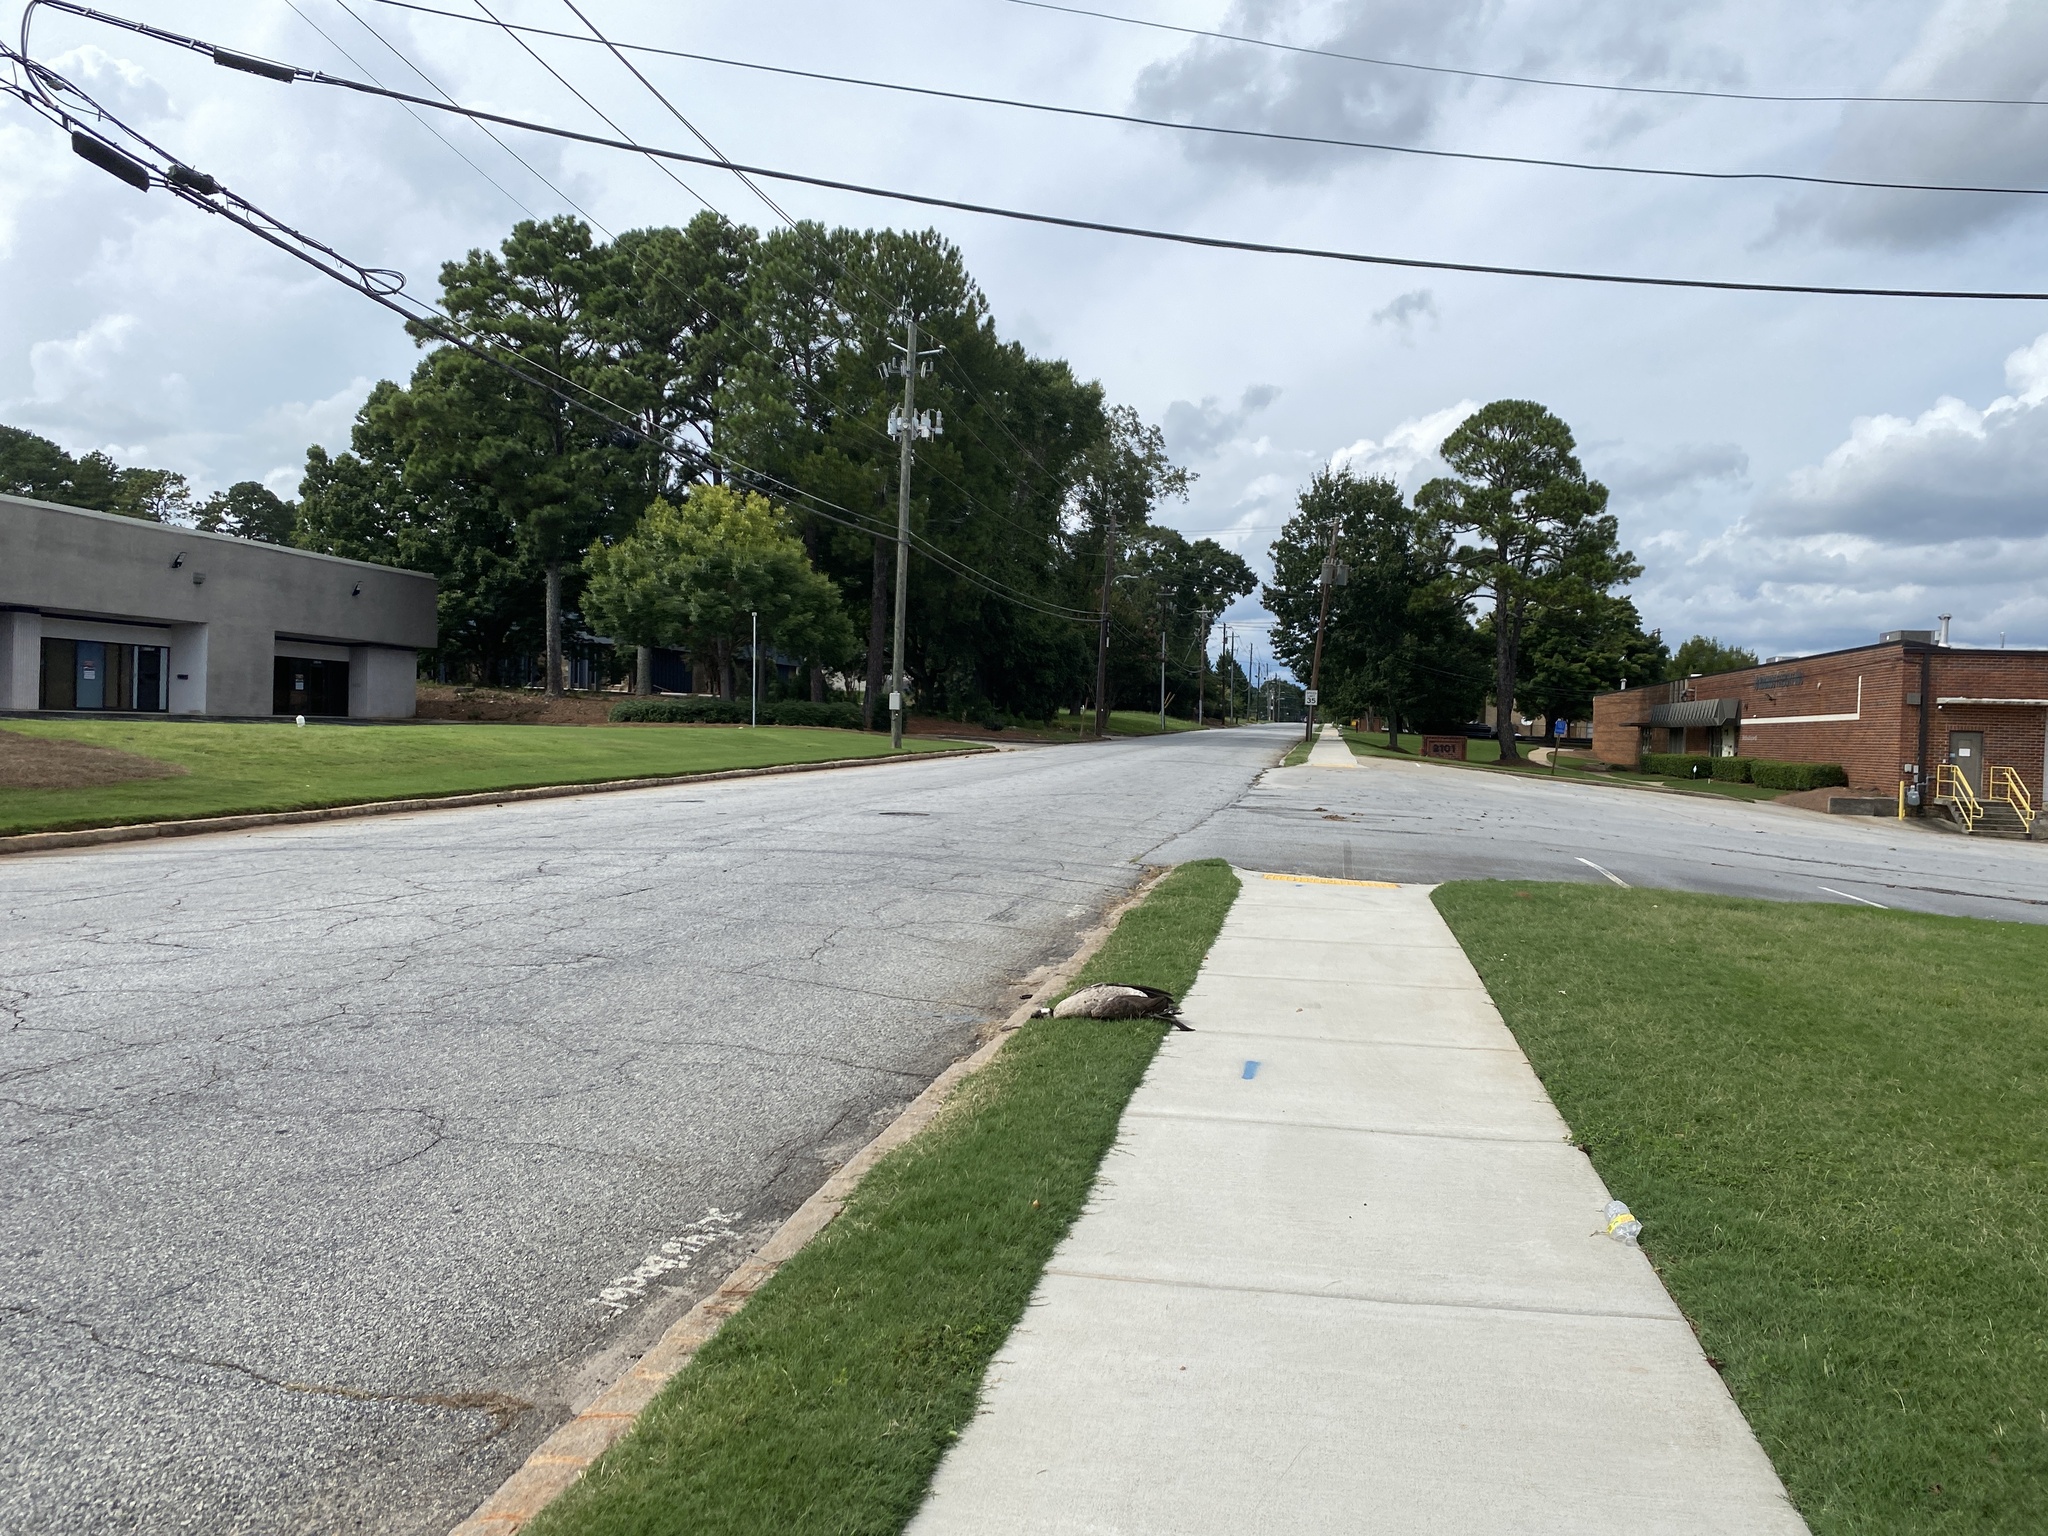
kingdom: Animalia
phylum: Chordata
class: Aves
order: Anseriformes
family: Anatidae
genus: Branta
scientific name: Branta canadensis
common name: Canada goose
